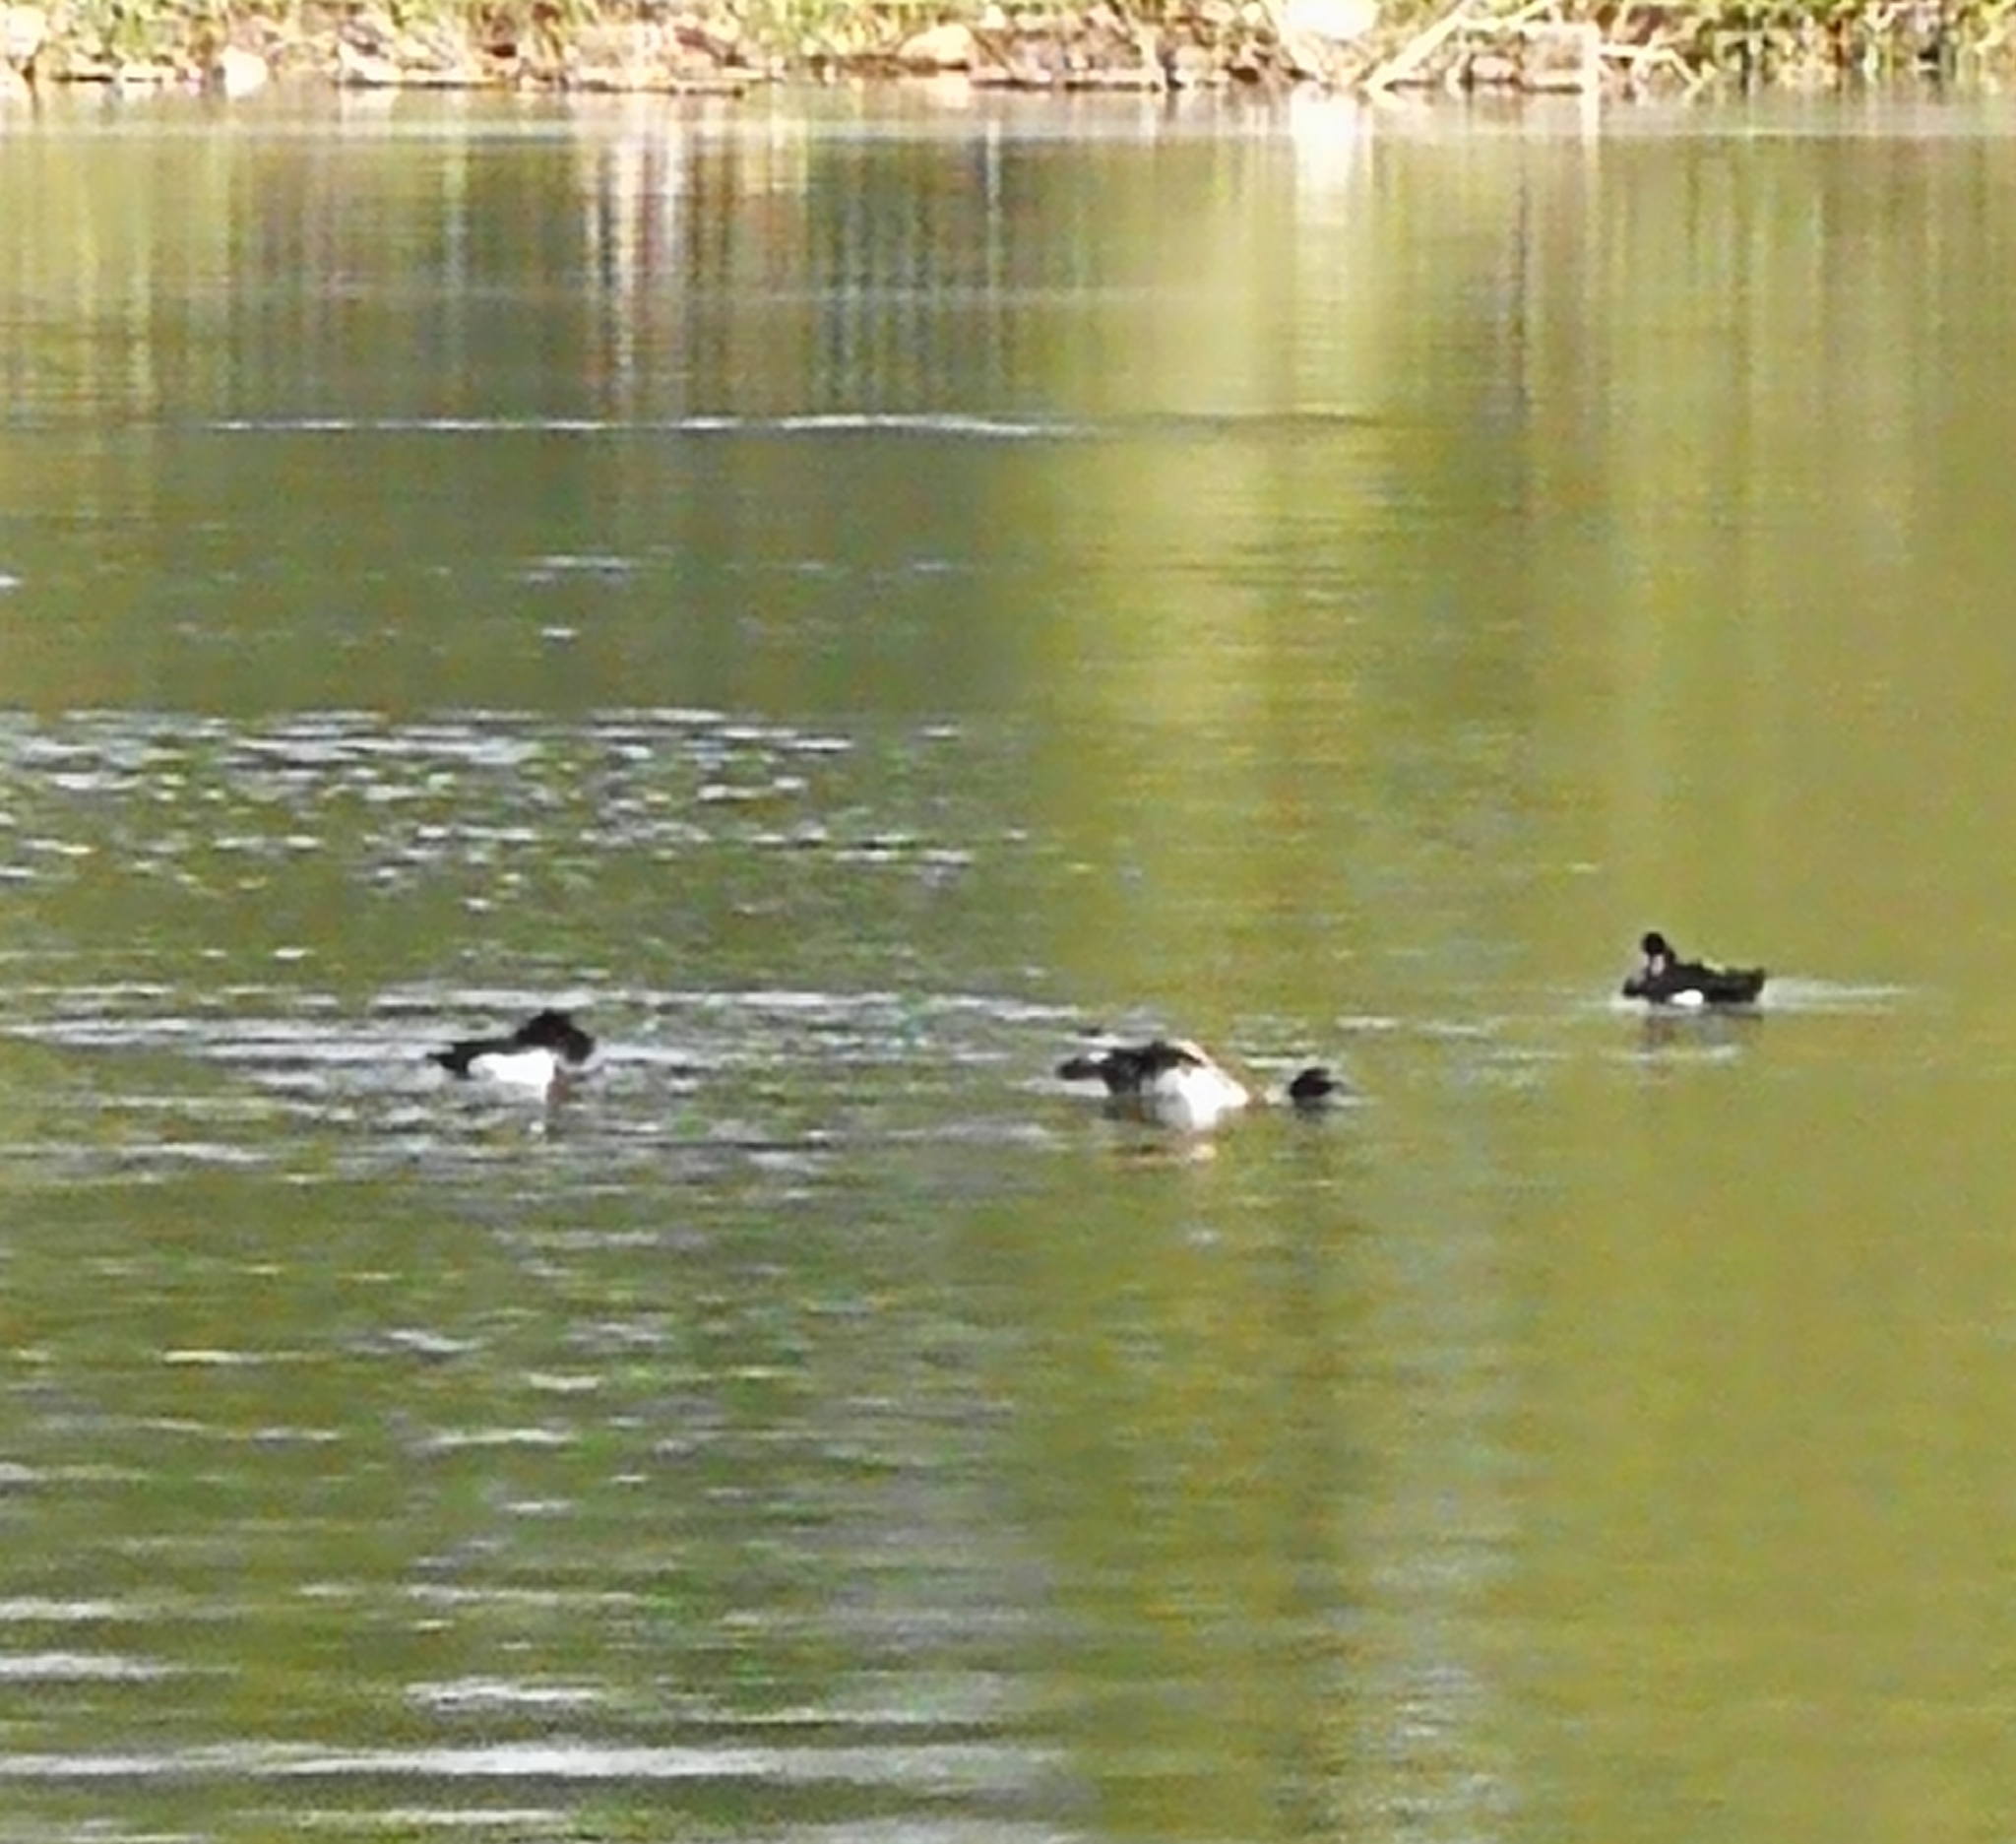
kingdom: Animalia
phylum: Chordata
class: Aves
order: Anseriformes
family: Anatidae
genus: Aythya
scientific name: Aythya fuligula
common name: Tufted duck
